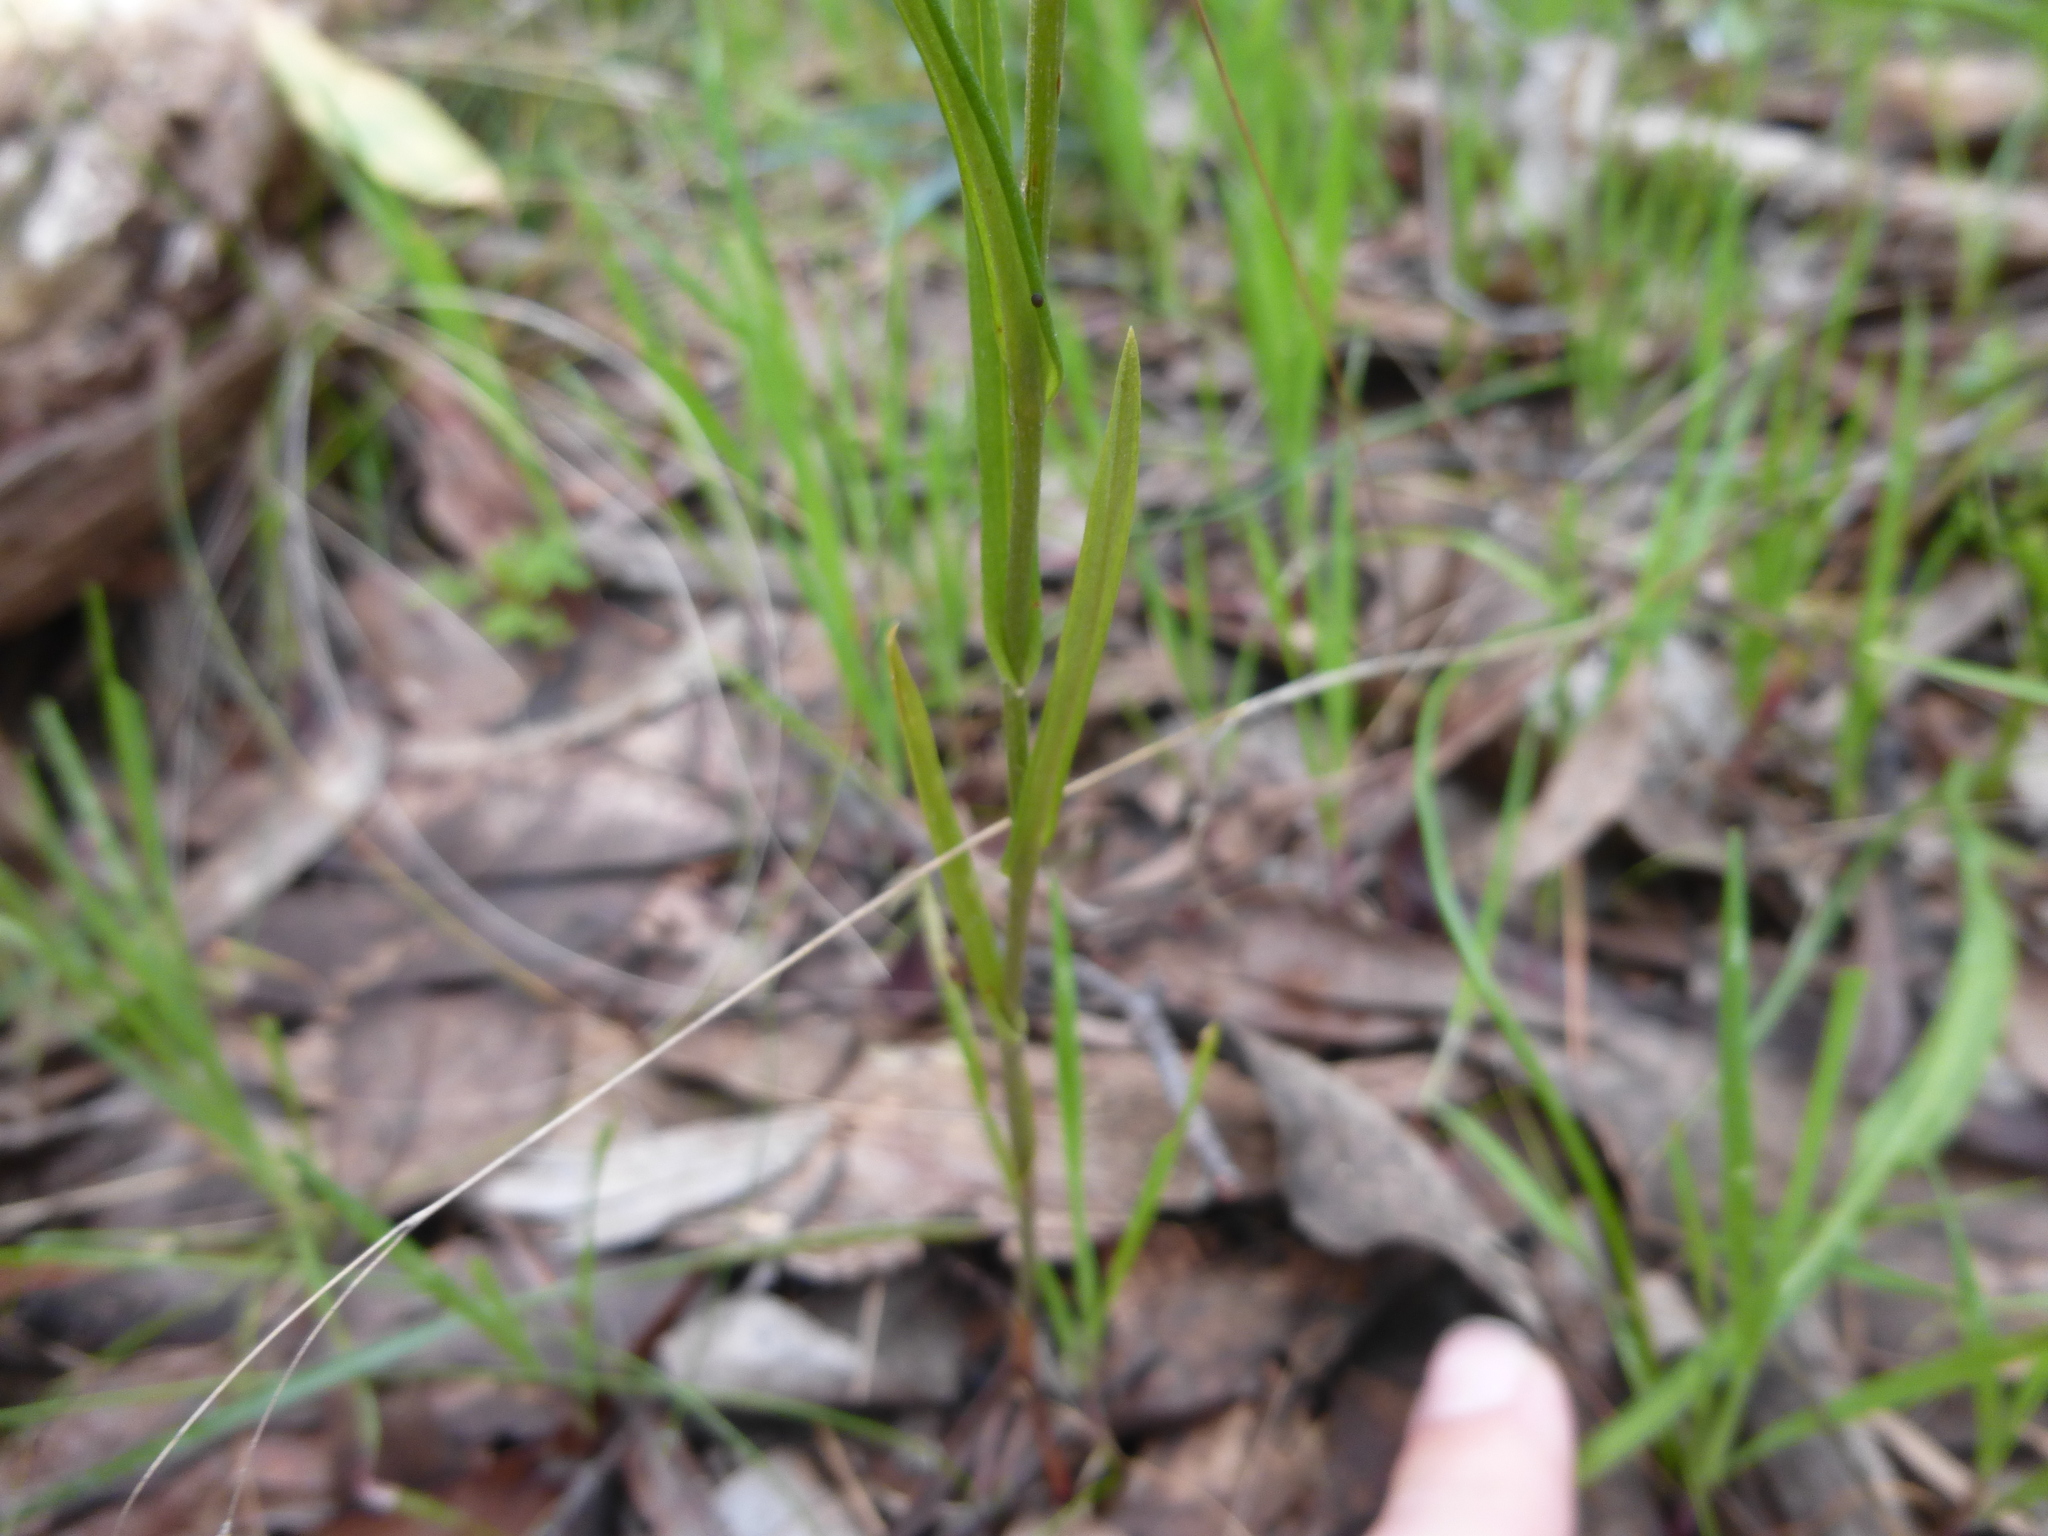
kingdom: Plantae
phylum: Tracheophyta
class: Liliopsida
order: Asparagales
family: Orchidaceae
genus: Pterostylis
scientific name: Pterostylis melagramma
